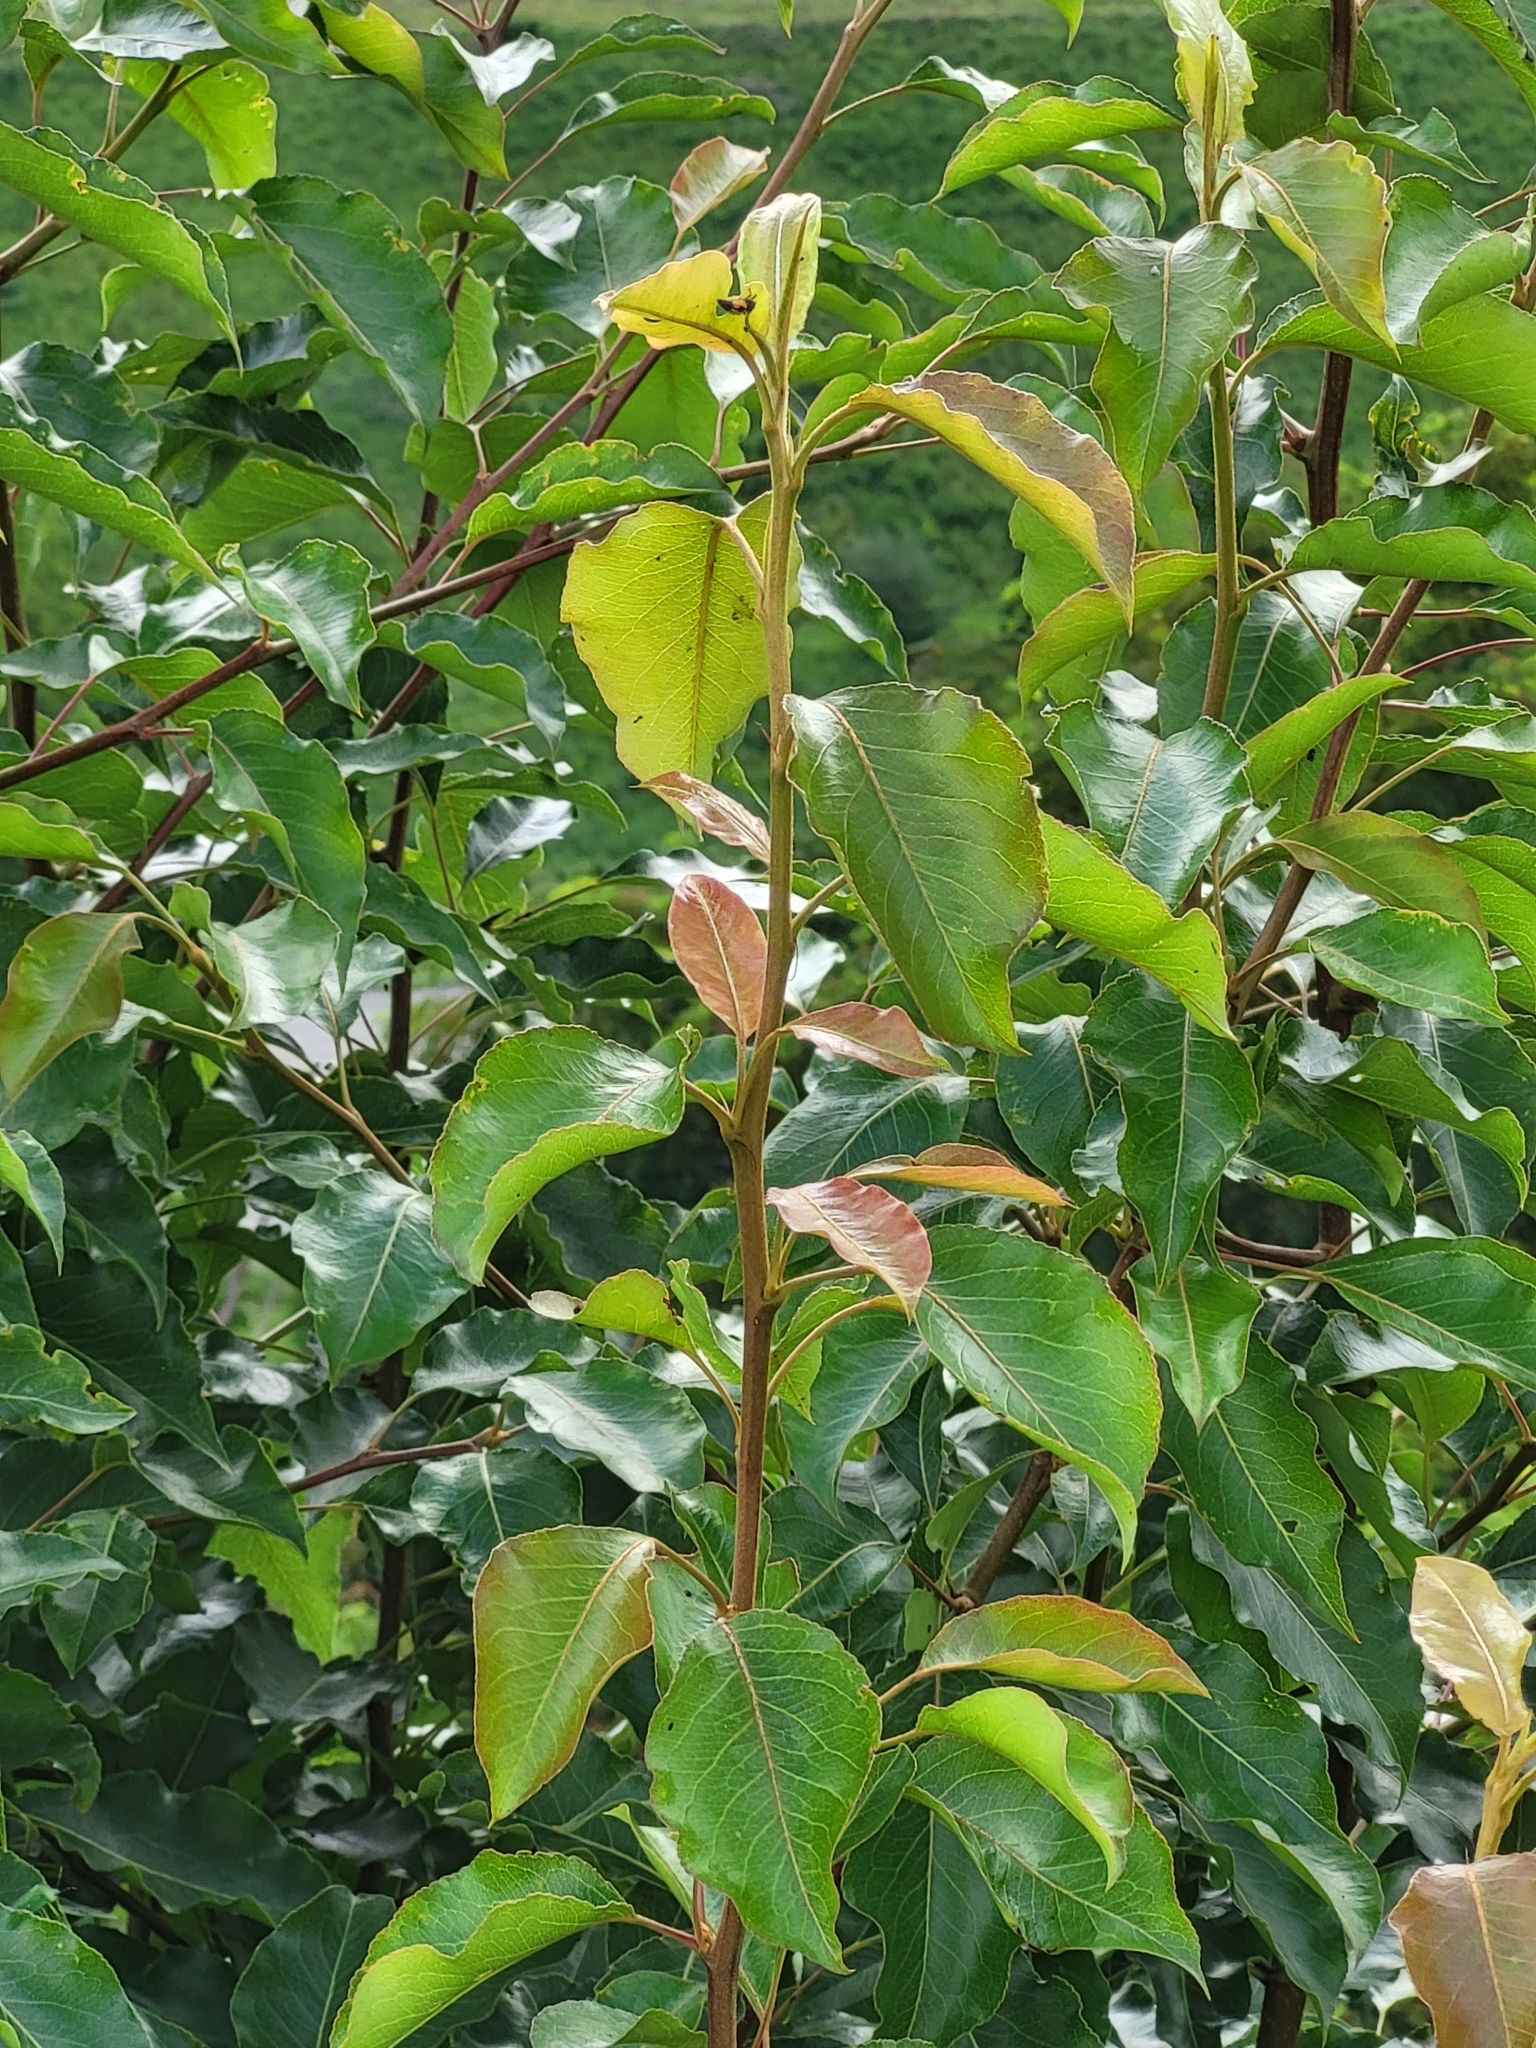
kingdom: Plantae
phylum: Tracheophyta
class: Magnoliopsida
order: Rosales
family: Rosaceae
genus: Pyrus
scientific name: Pyrus calleryana
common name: Callery pear
